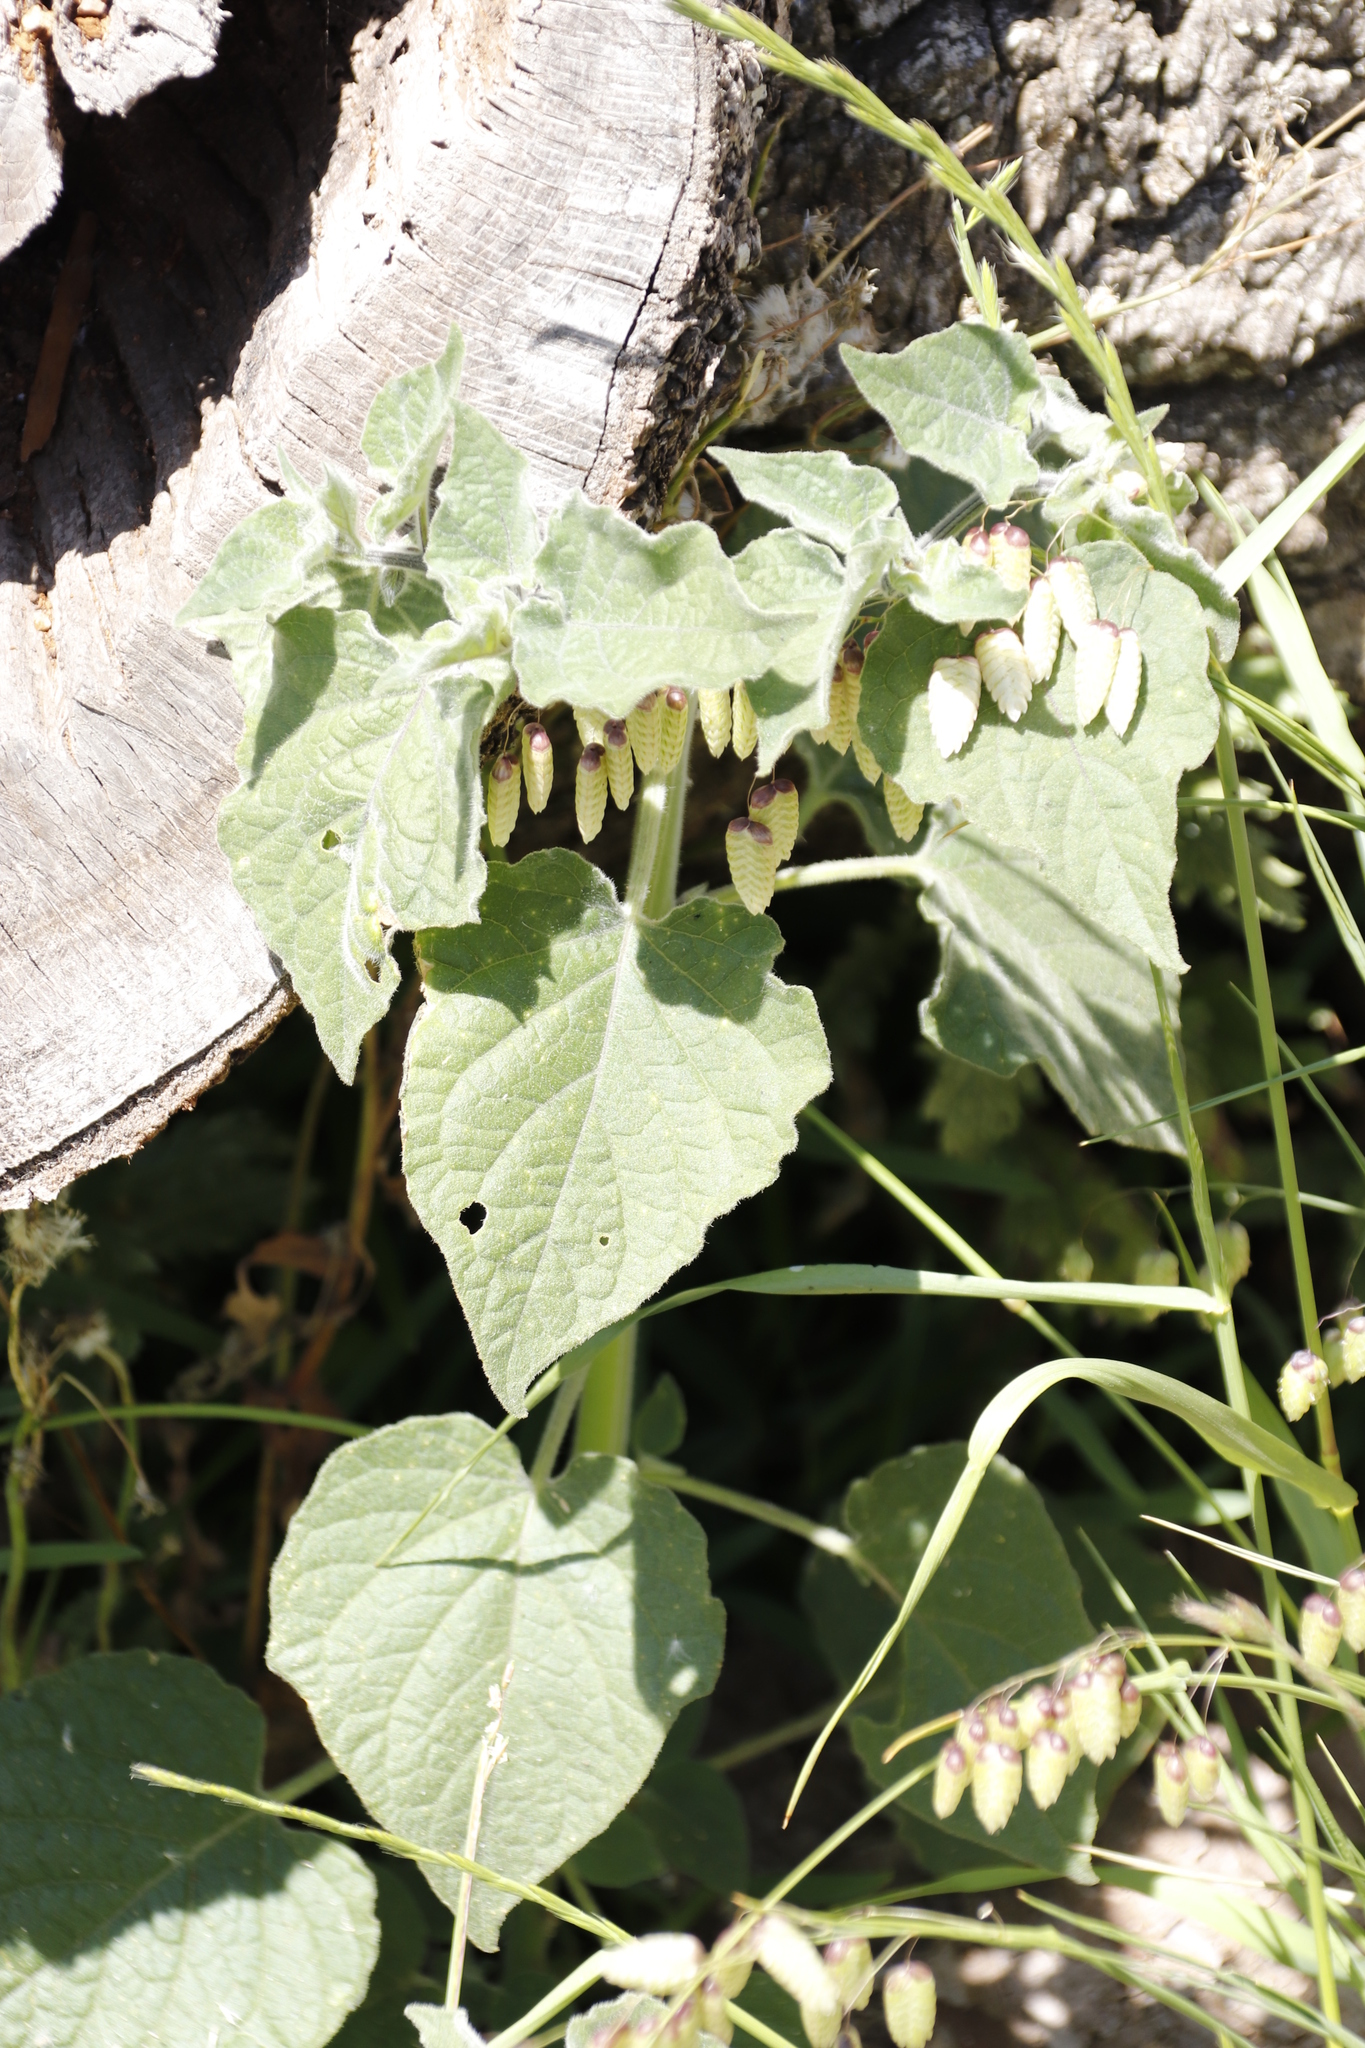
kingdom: Plantae
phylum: Tracheophyta
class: Magnoliopsida
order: Solanales
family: Solanaceae
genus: Physalis
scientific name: Physalis peruviana
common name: Cape-gooseberry
